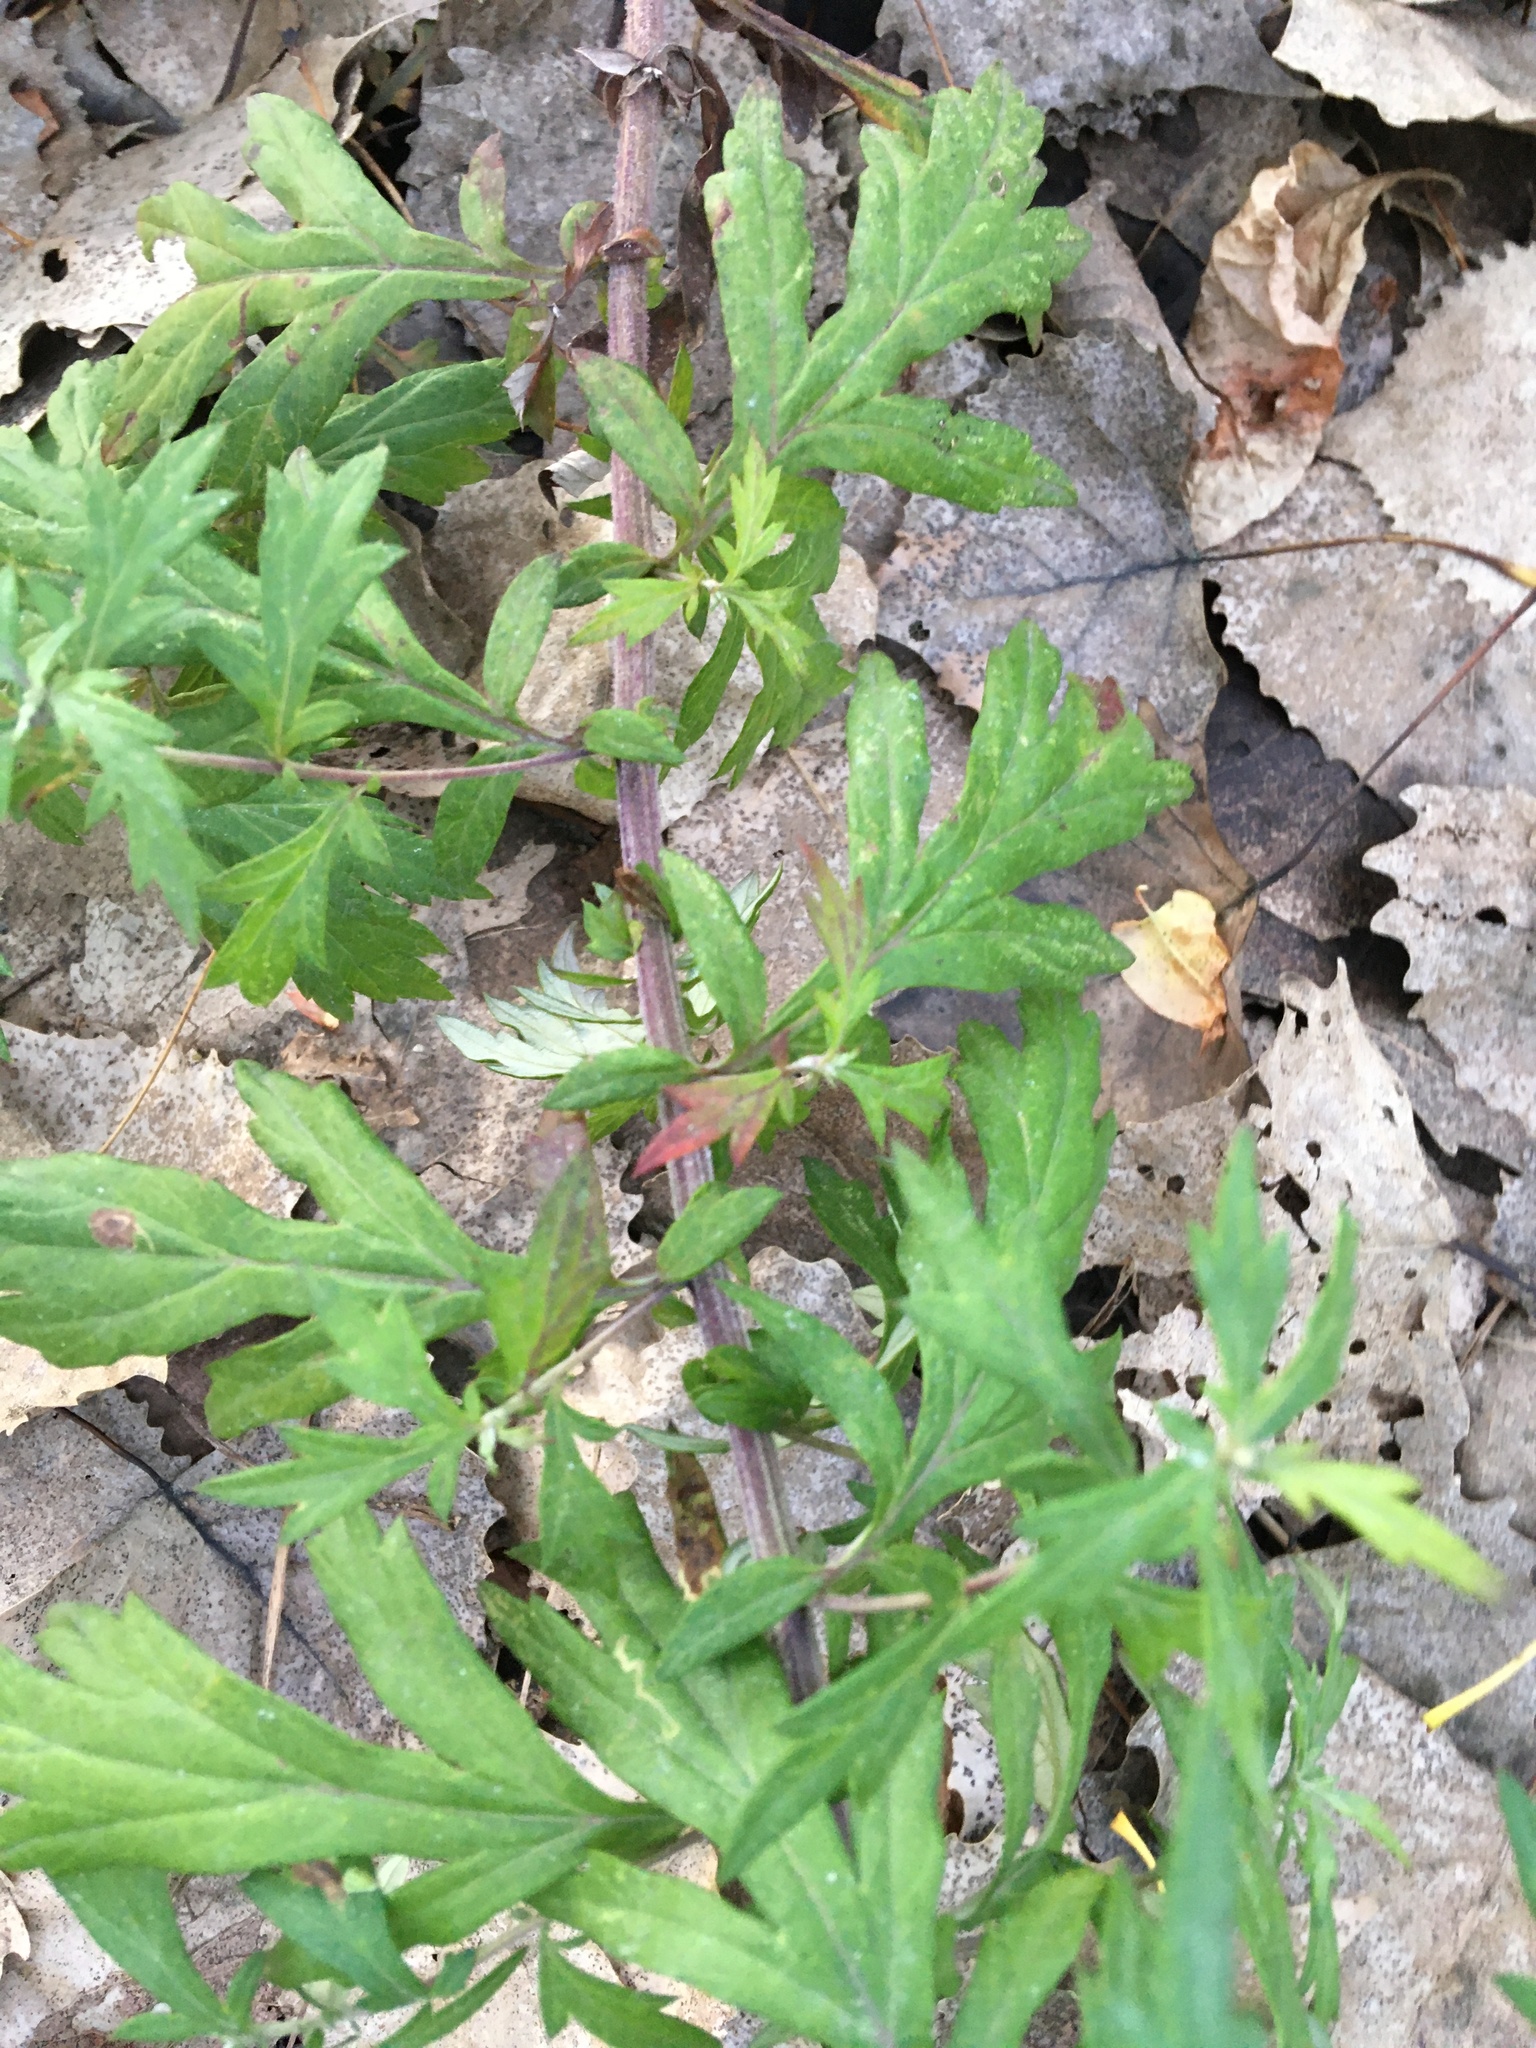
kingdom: Plantae
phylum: Tracheophyta
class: Magnoliopsida
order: Asterales
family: Asteraceae
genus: Artemisia
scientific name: Artemisia vulgaris
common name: Mugwort
